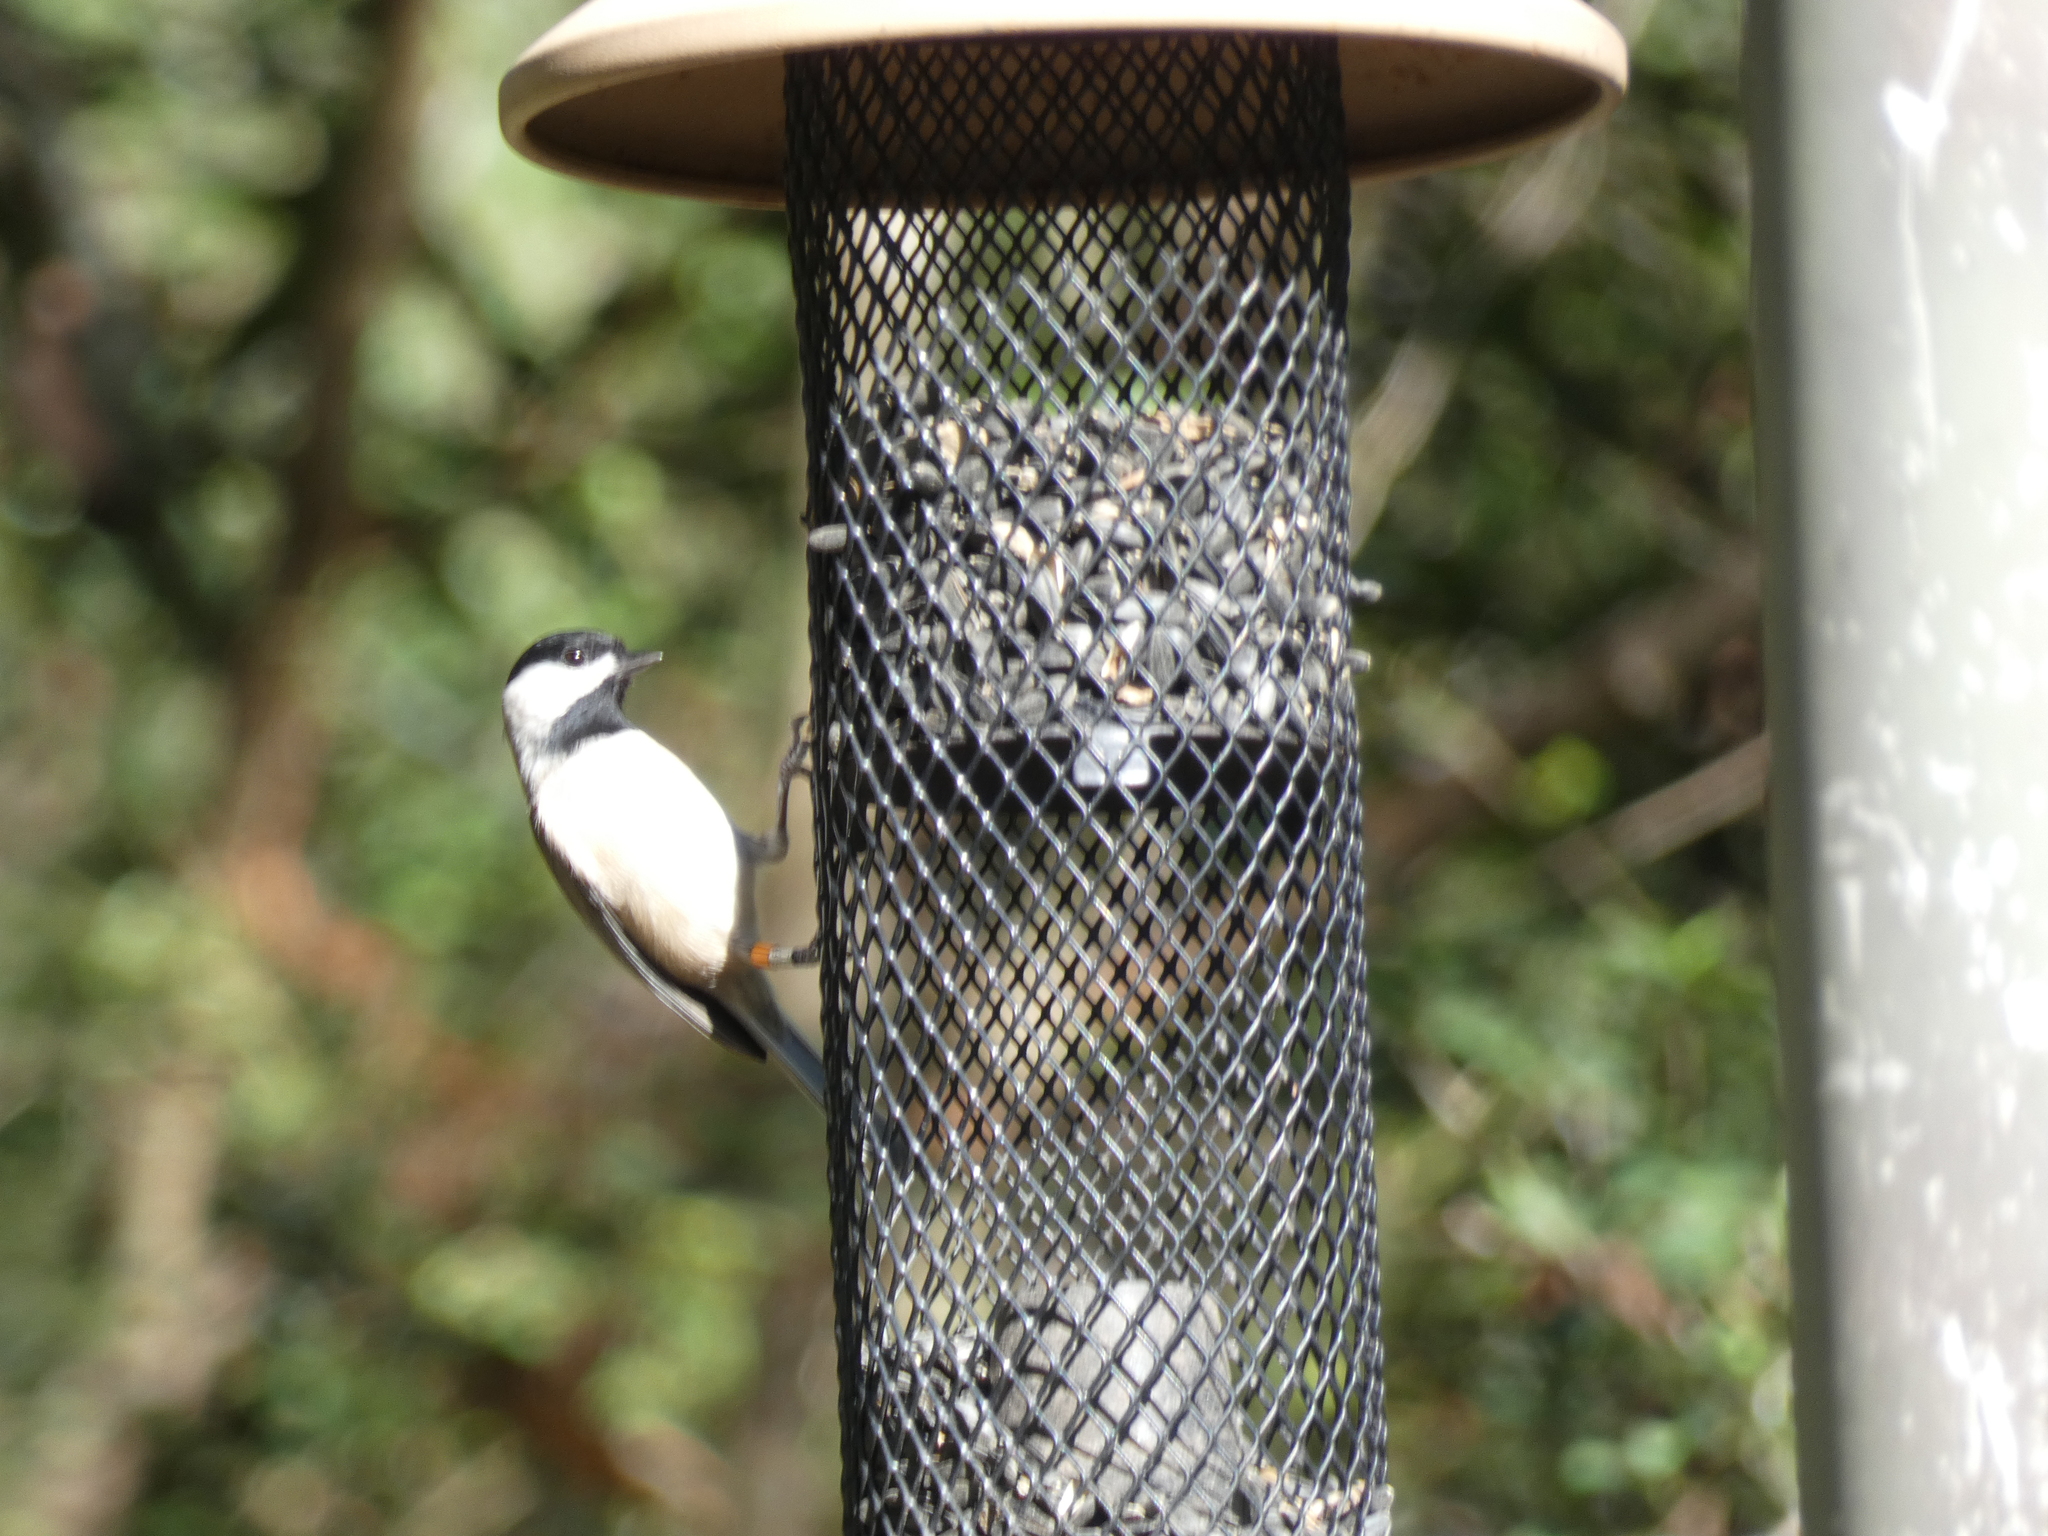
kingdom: Animalia
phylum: Chordata
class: Aves
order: Passeriformes
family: Paridae
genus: Poecile
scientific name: Poecile carolinensis
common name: Carolina chickadee
